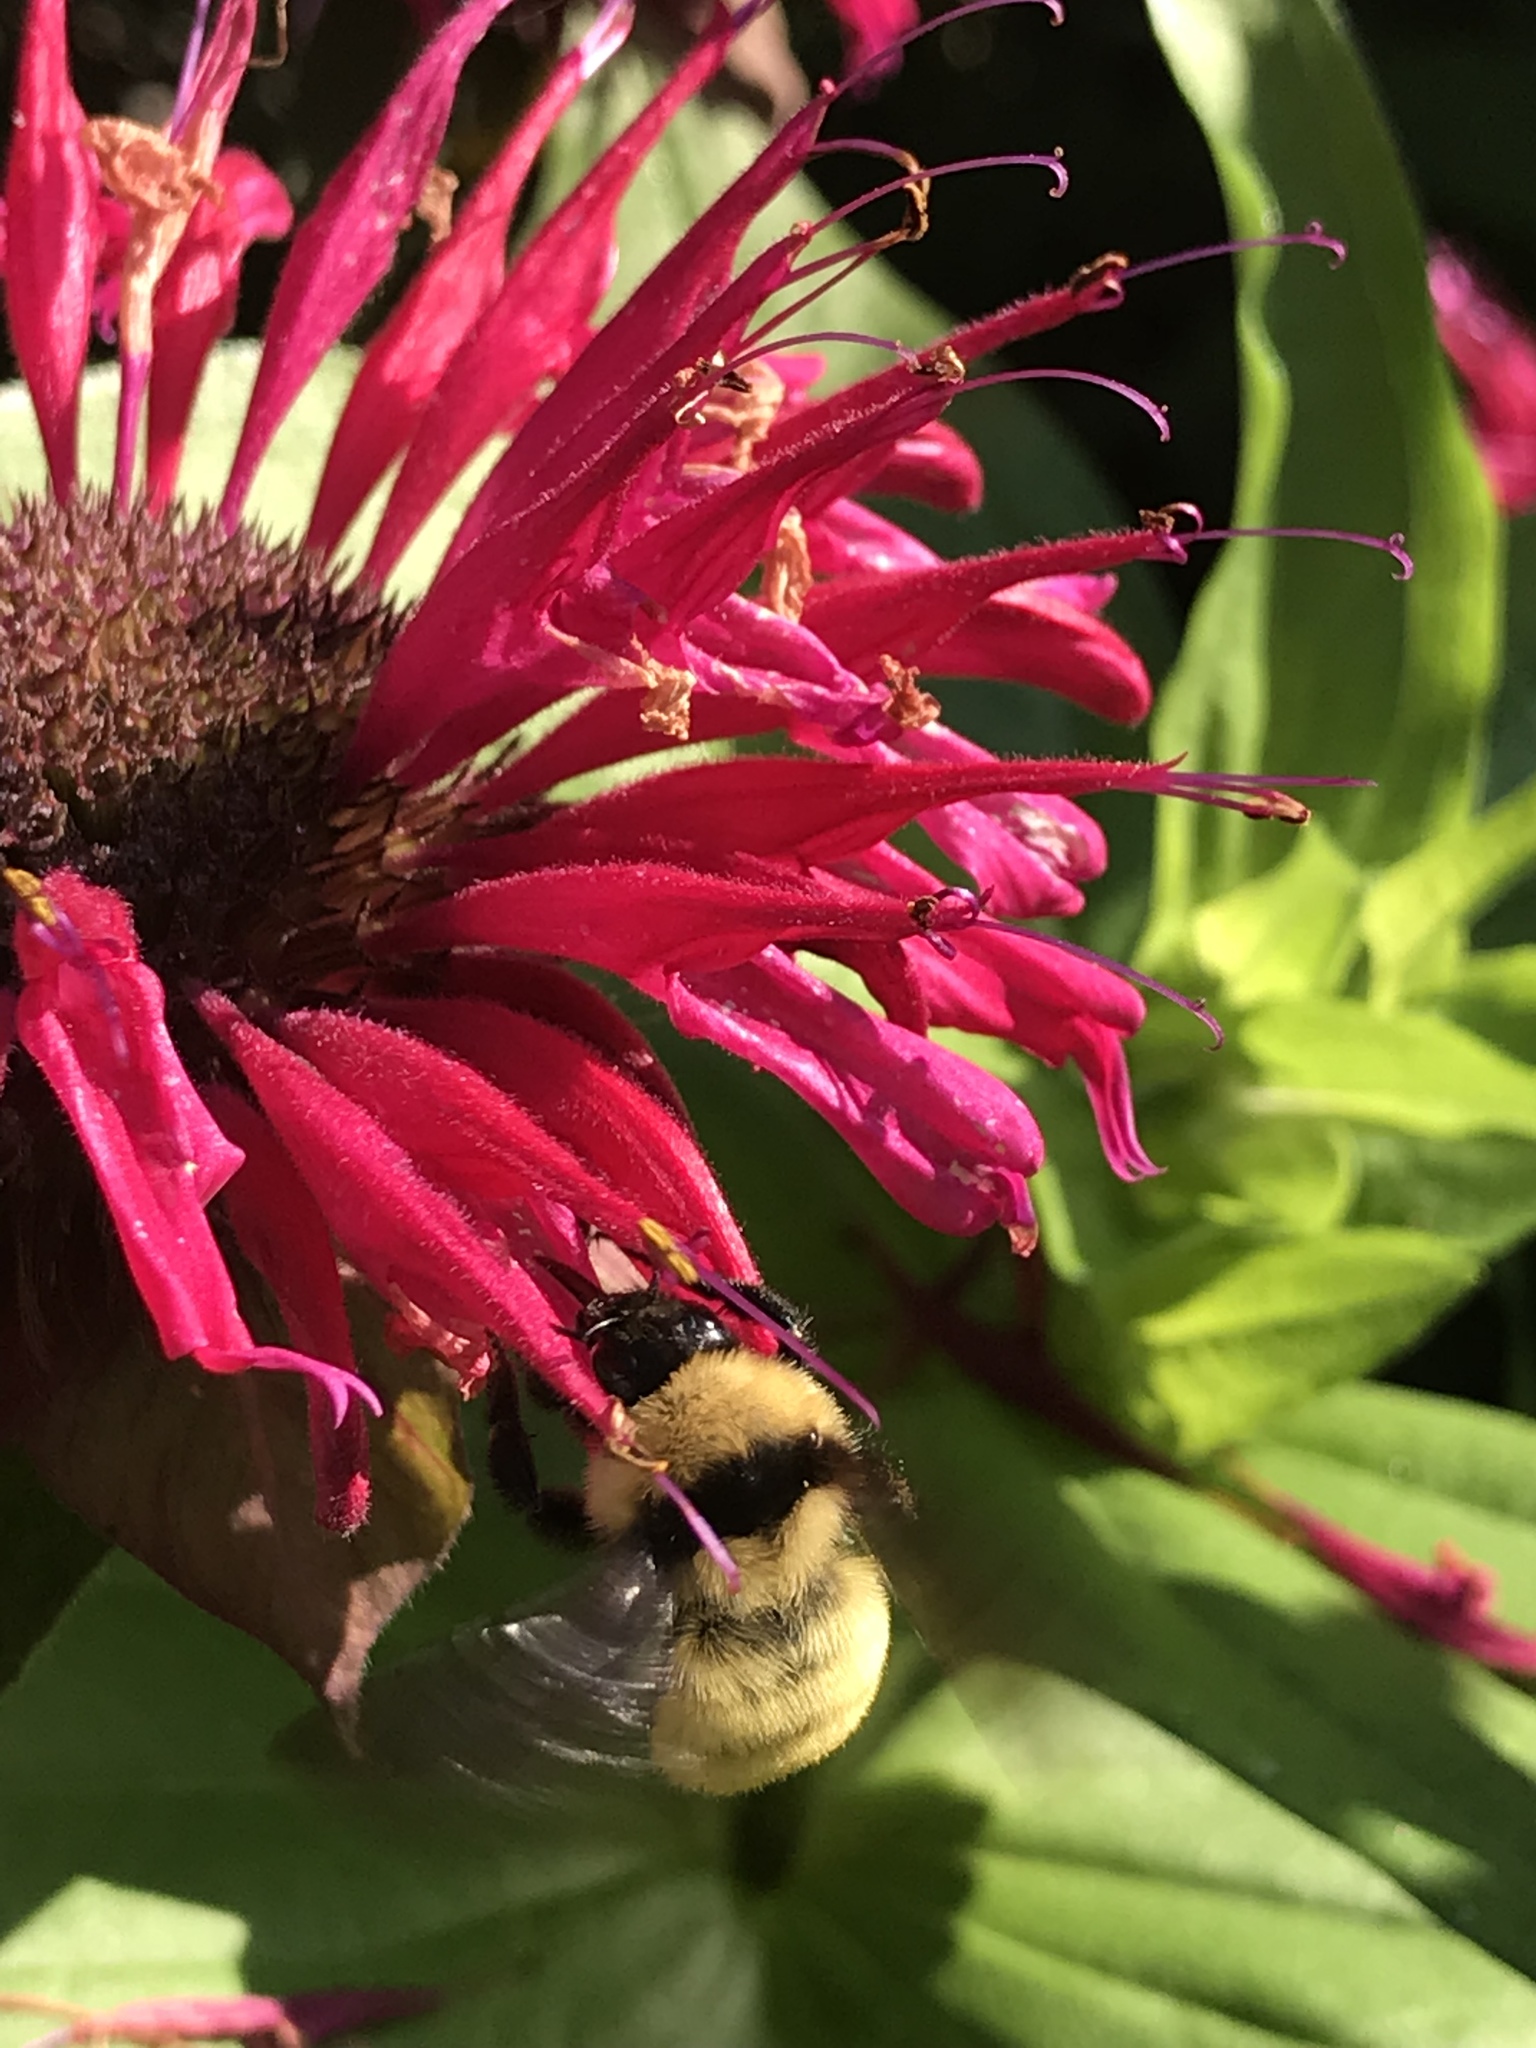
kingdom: Animalia
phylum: Arthropoda
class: Insecta
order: Hymenoptera
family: Apidae
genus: Bombus
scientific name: Bombus fervidus
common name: Yellow bumble bee
